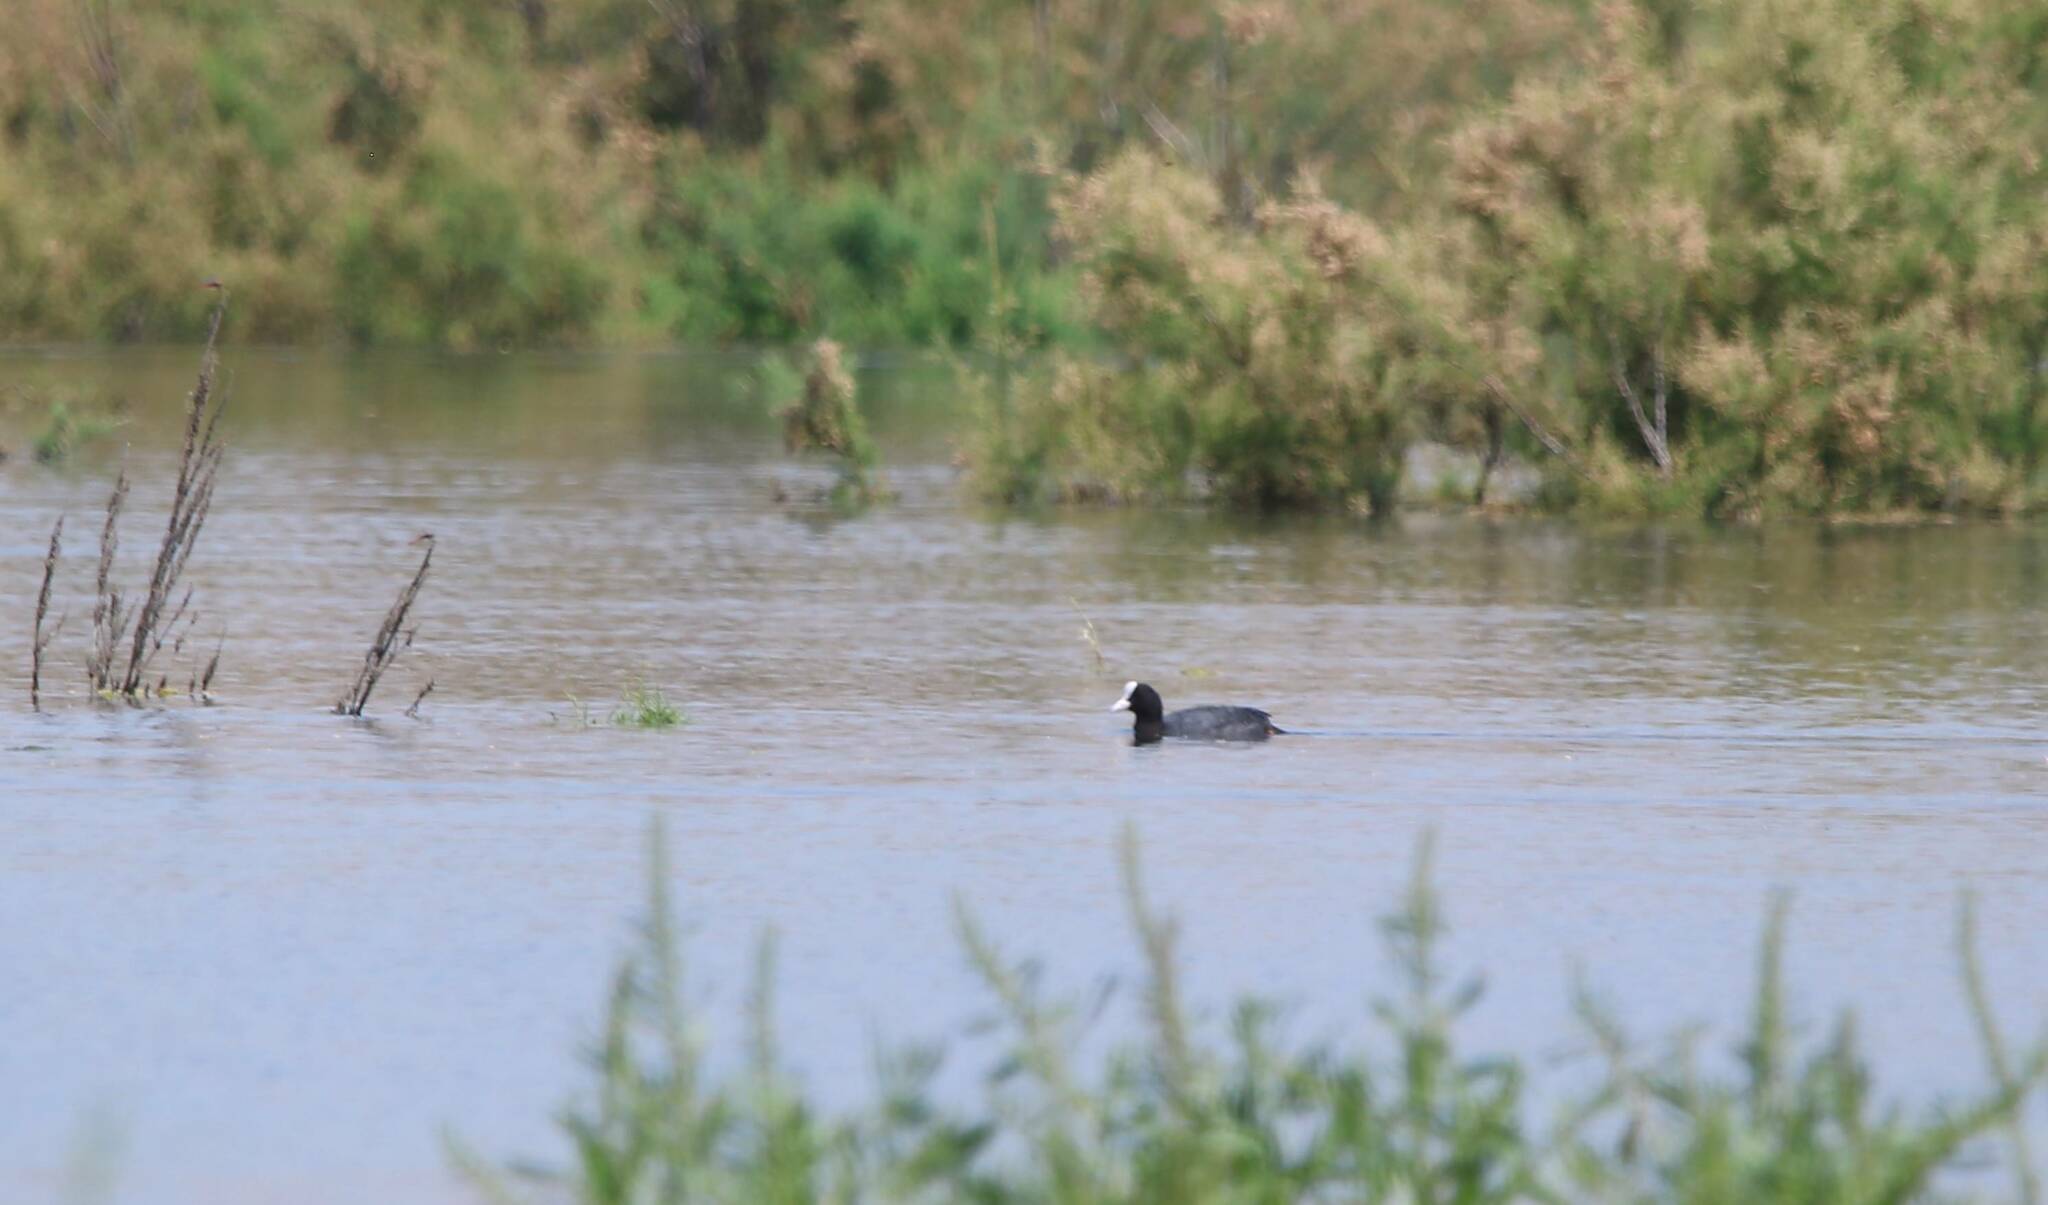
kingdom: Animalia
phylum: Chordata
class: Aves
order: Gruiformes
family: Rallidae
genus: Fulica
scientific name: Fulica atra
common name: Eurasian coot
